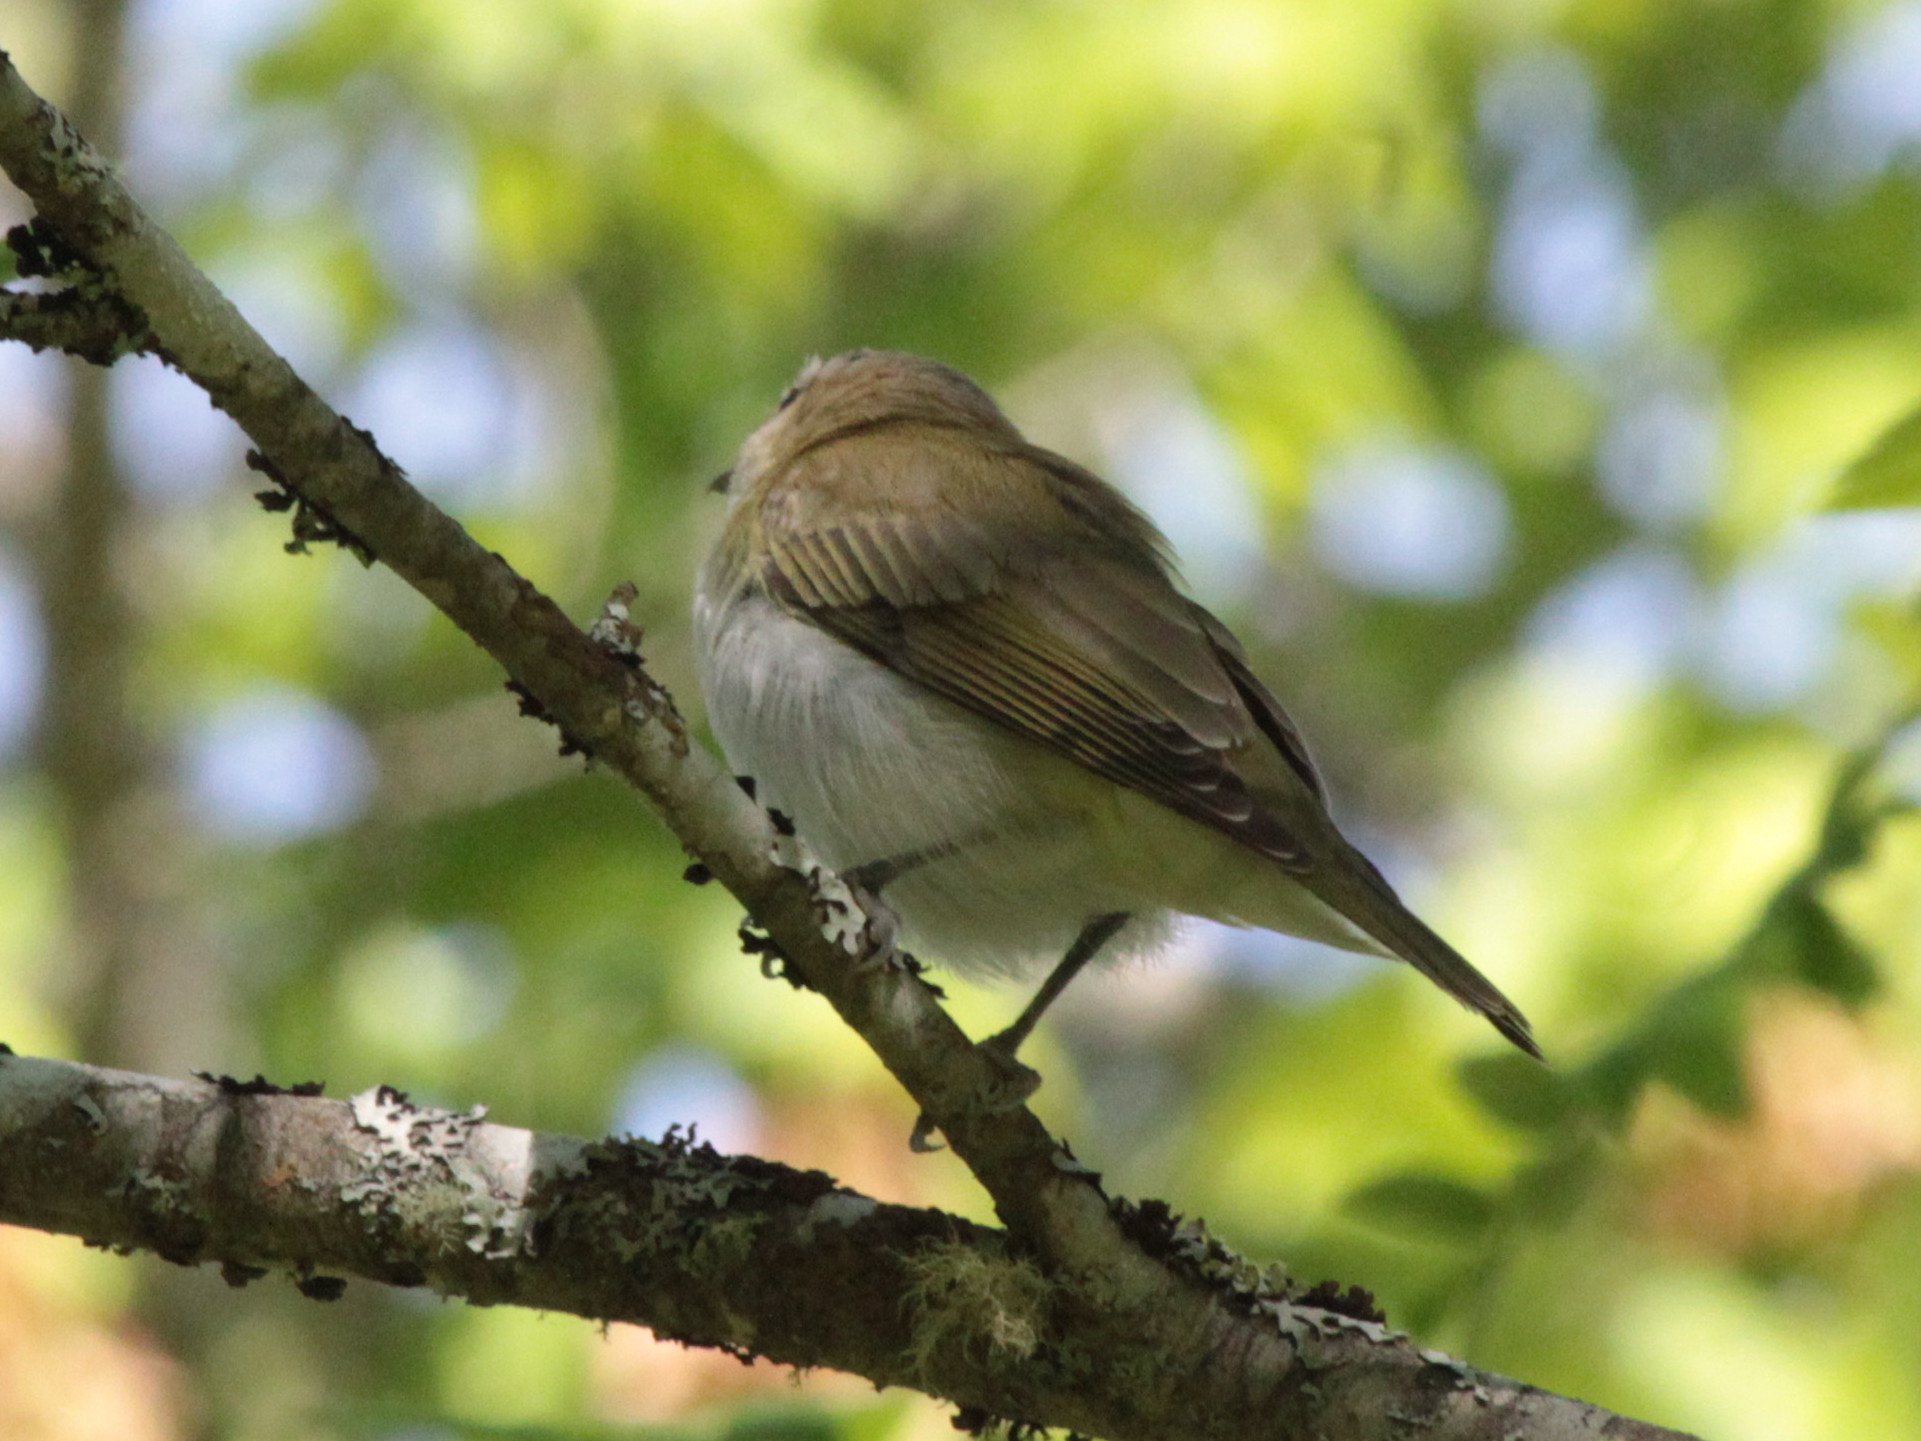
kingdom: Animalia
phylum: Chordata
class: Aves
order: Passeriformes
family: Vireonidae
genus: Vireo
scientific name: Vireo olivaceus
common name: Red-eyed vireo
